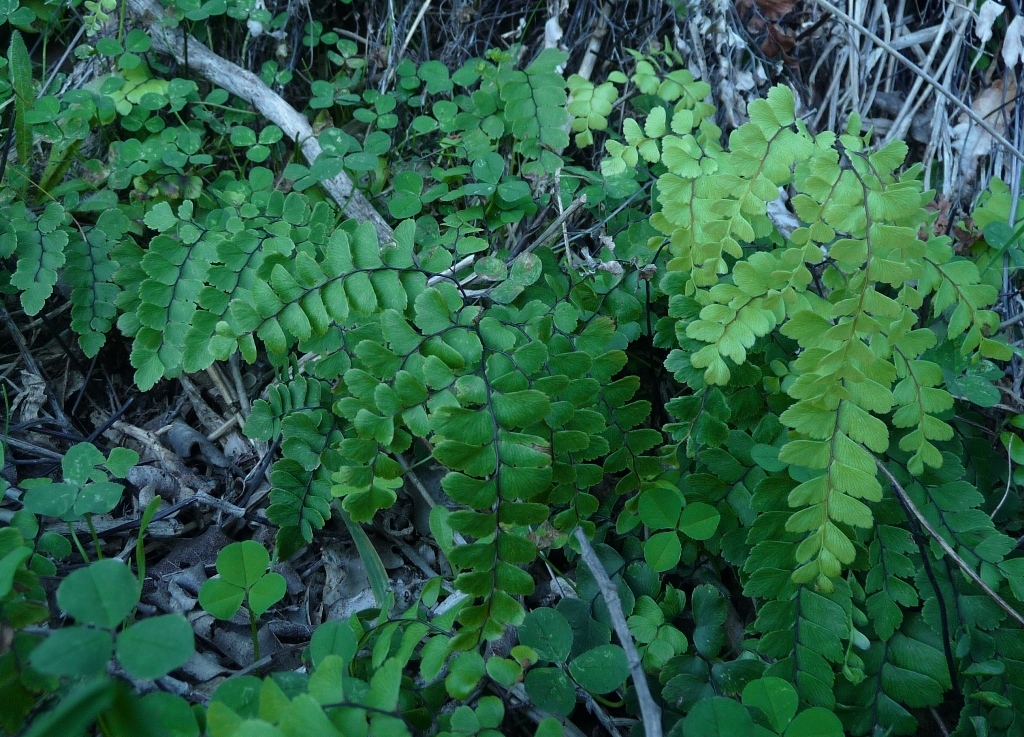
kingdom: Plantae
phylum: Tracheophyta
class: Polypodiopsida
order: Polypodiales
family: Pteridaceae
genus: Adiantum
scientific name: Adiantum cunninghamii
